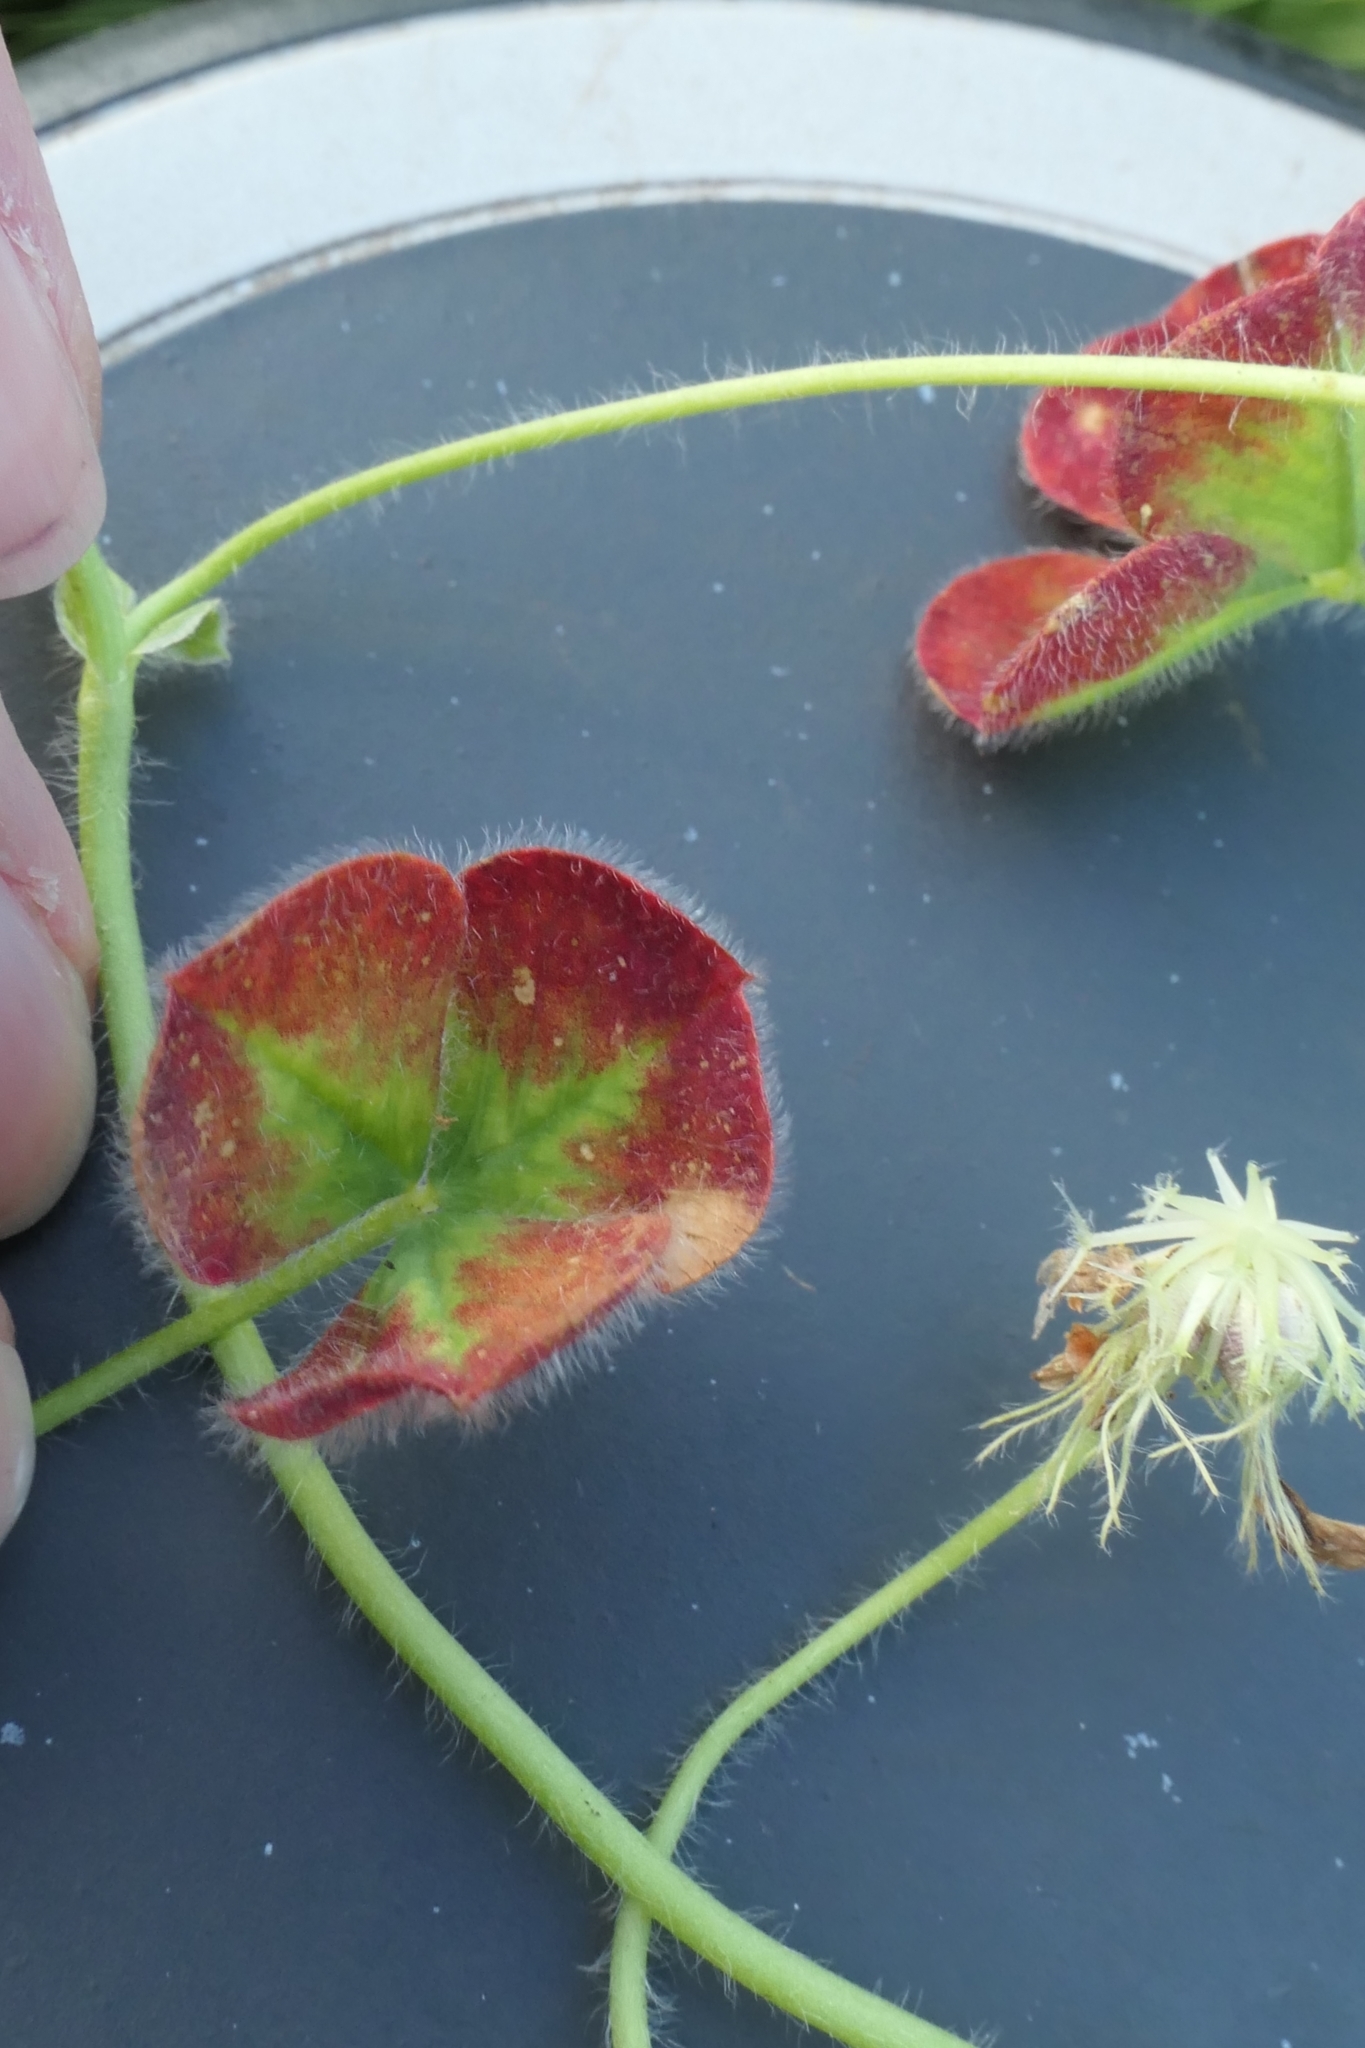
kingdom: Plantae
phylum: Tracheophyta
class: Magnoliopsida
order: Fabales
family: Fabaceae
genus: Trifolium
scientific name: Trifolium subterraneum
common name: Subterranean clover
